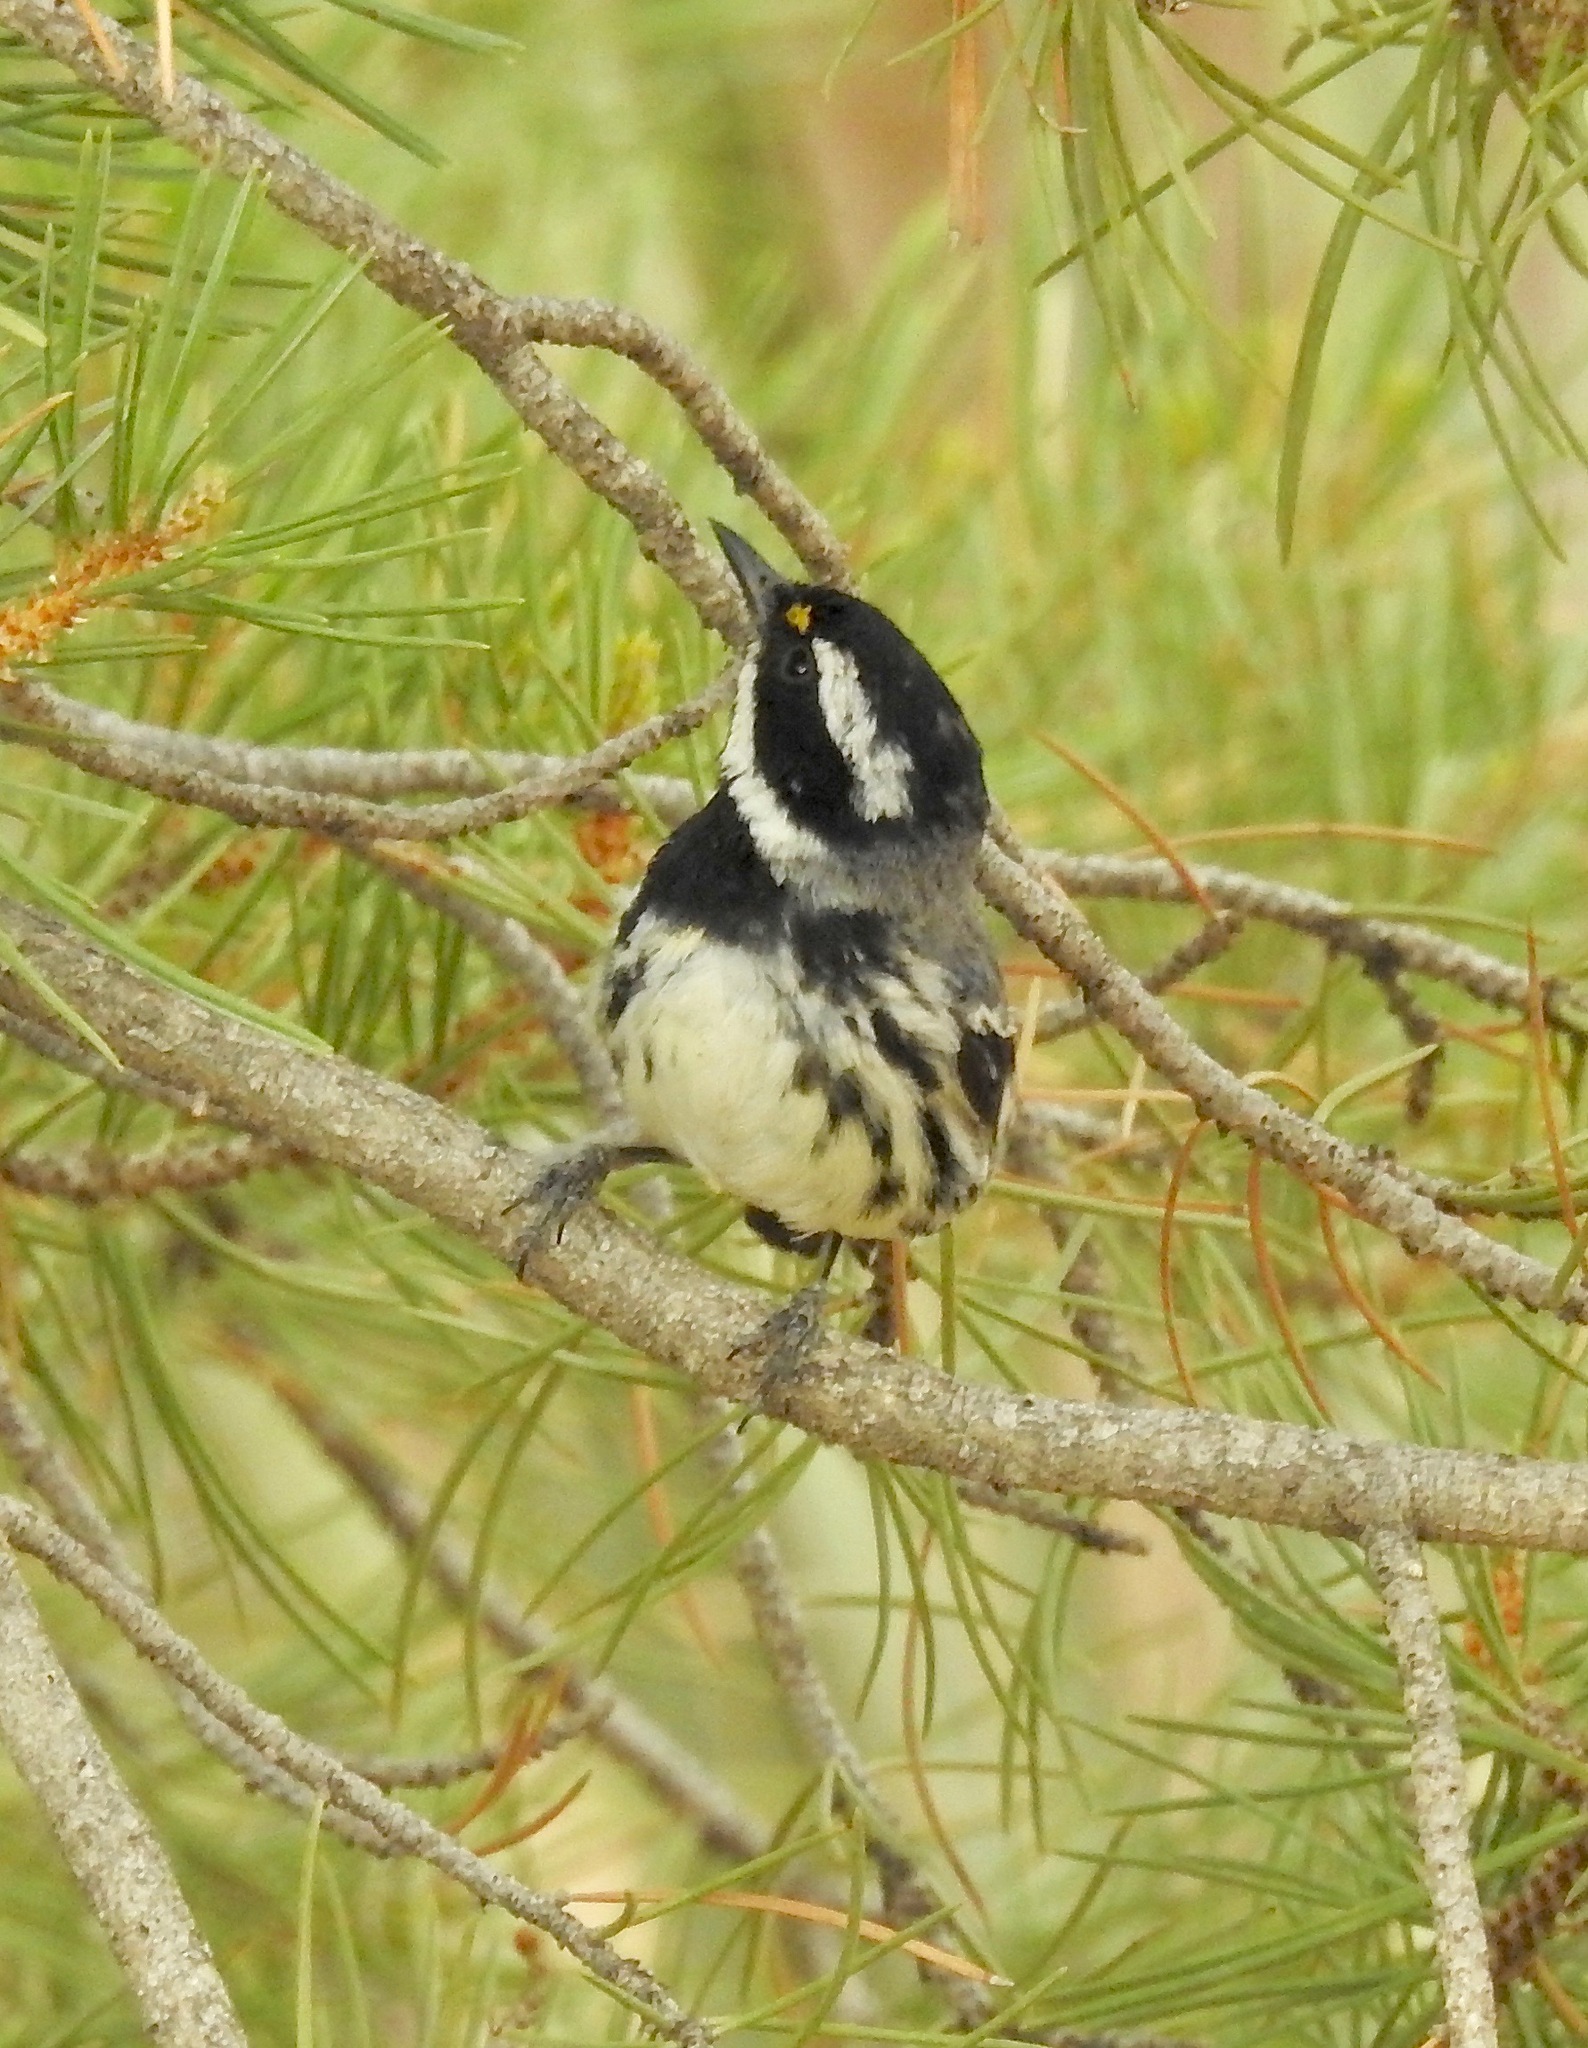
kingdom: Animalia
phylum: Chordata
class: Aves
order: Passeriformes
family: Parulidae
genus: Setophaga
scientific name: Setophaga nigrescens
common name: Black-throated gray warbler
